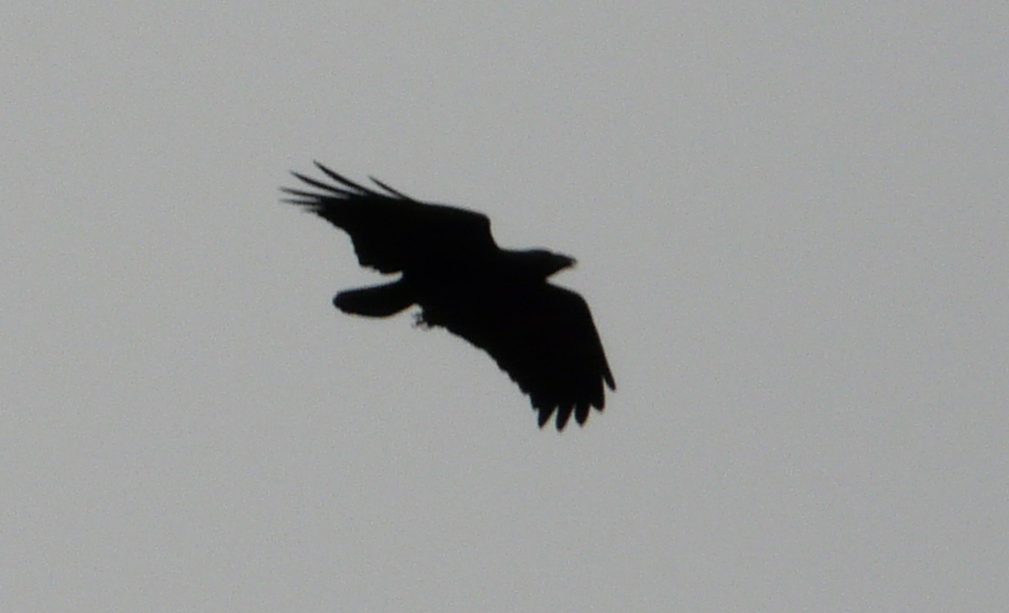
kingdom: Animalia
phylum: Chordata
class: Aves
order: Passeriformes
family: Corvidae
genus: Corvus
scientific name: Corvus rhipidurus
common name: Fan-tailed raven
